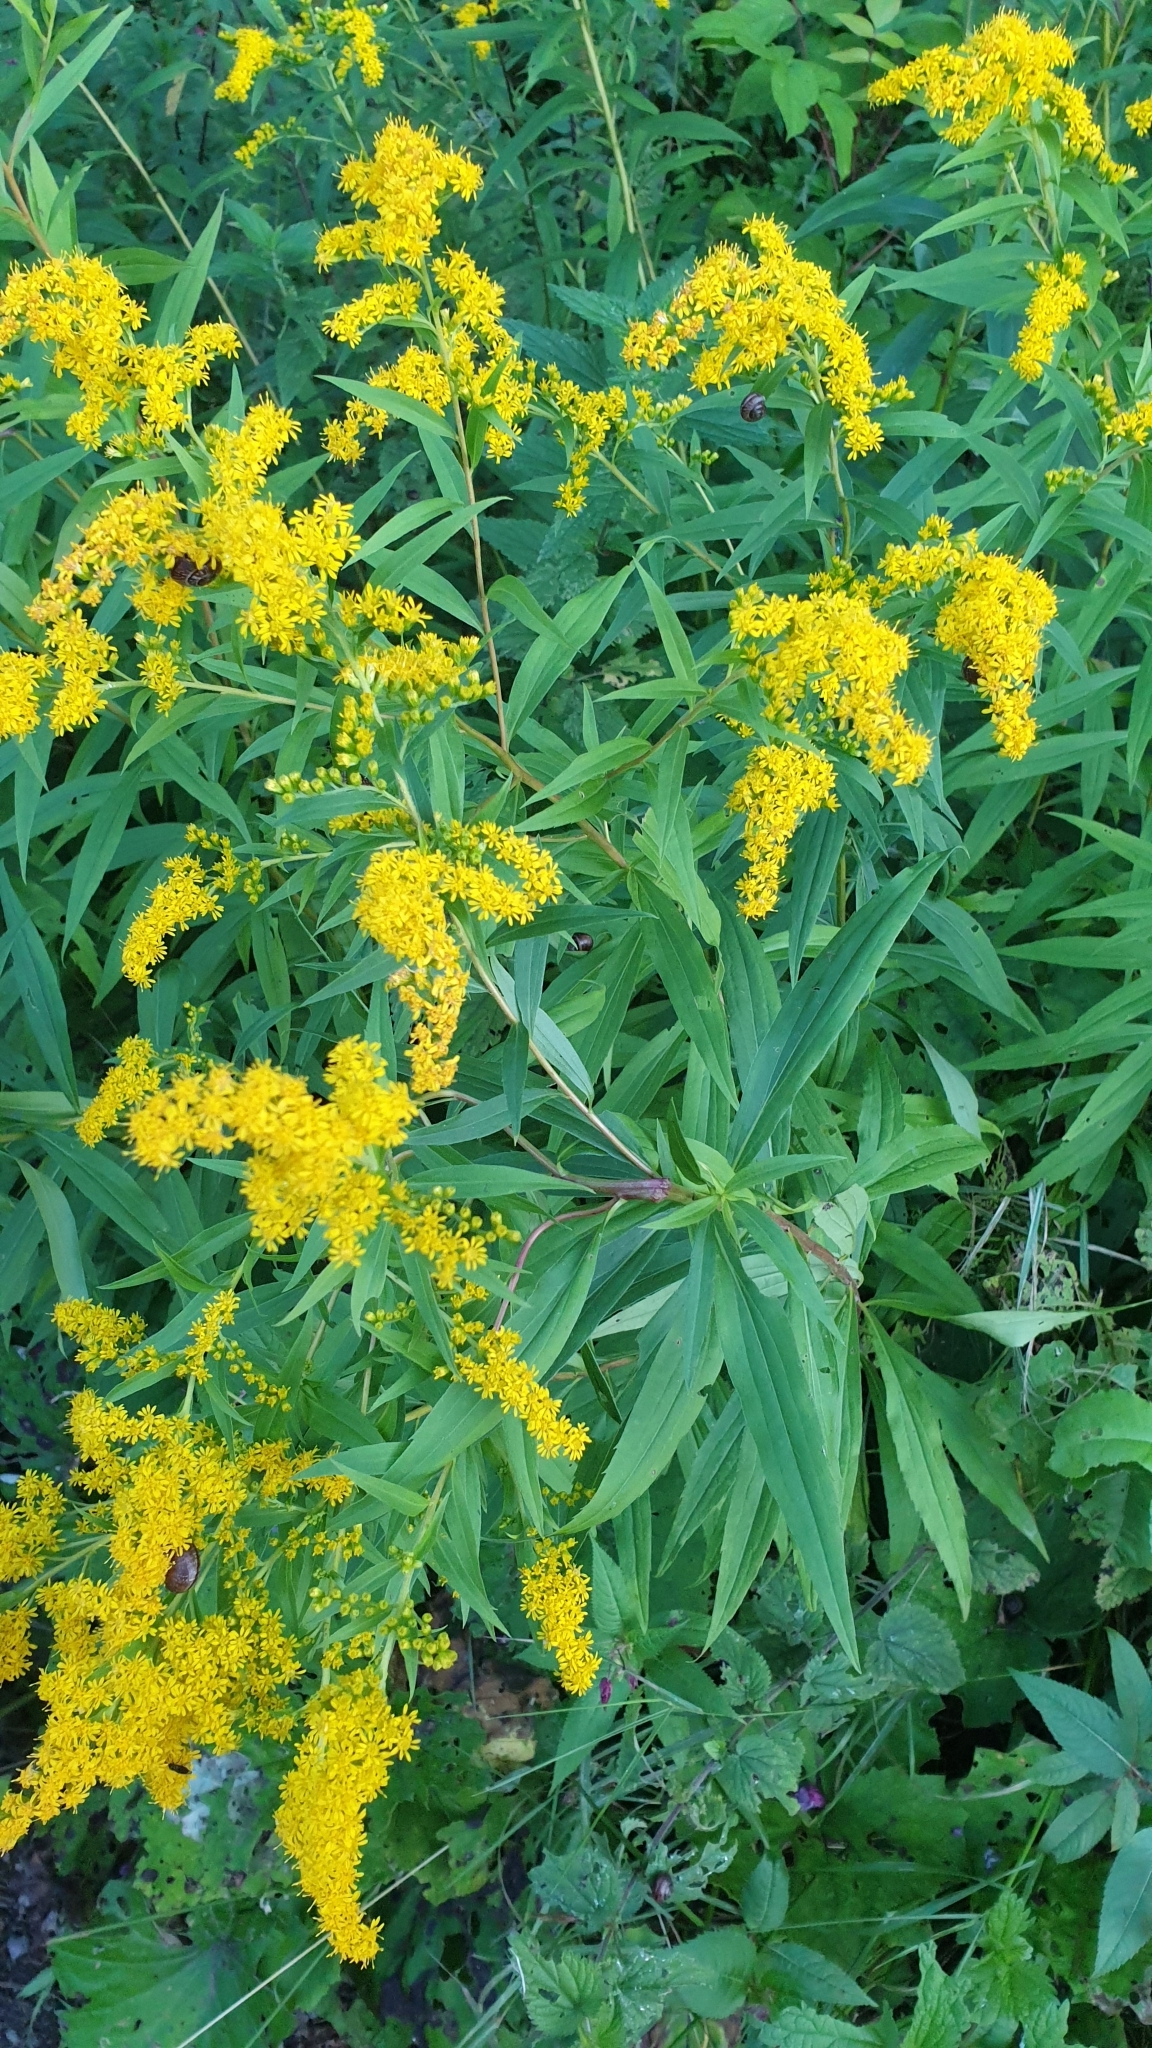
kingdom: Plantae
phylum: Tracheophyta
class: Magnoliopsida
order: Asterales
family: Asteraceae
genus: Solidago
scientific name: Solidago gigantea
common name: Giant goldenrod
